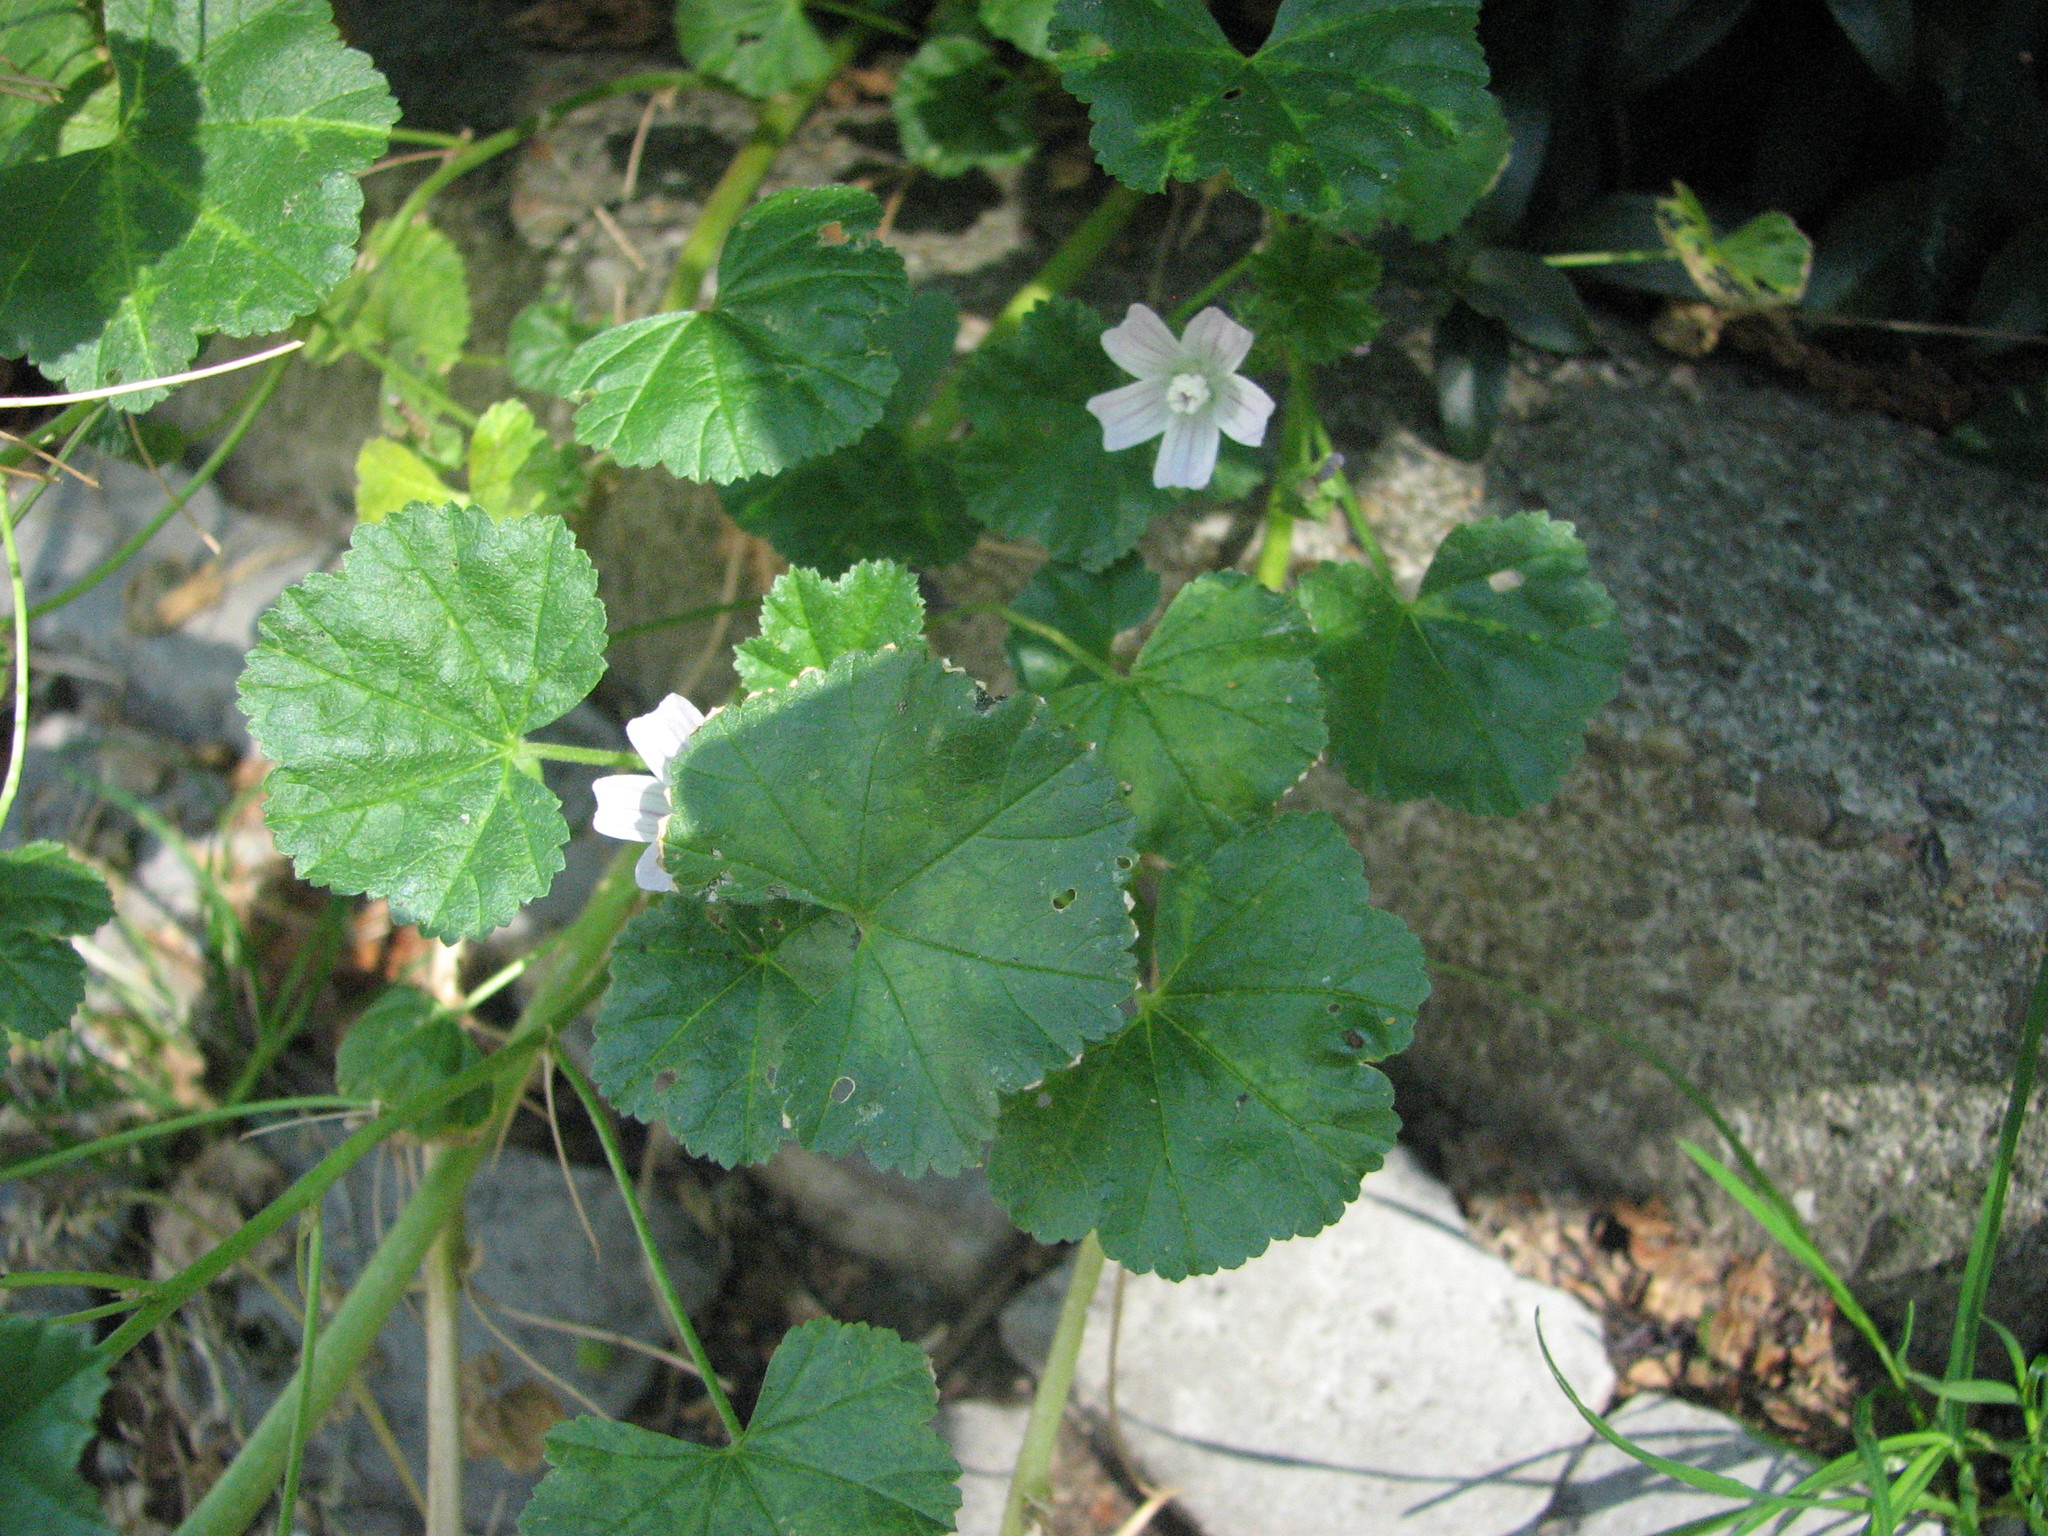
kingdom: Plantae
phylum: Tracheophyta
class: Magnoliopsida
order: Malvales
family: Malvaceae
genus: Malva
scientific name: Malva neglecta
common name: Common mallow
